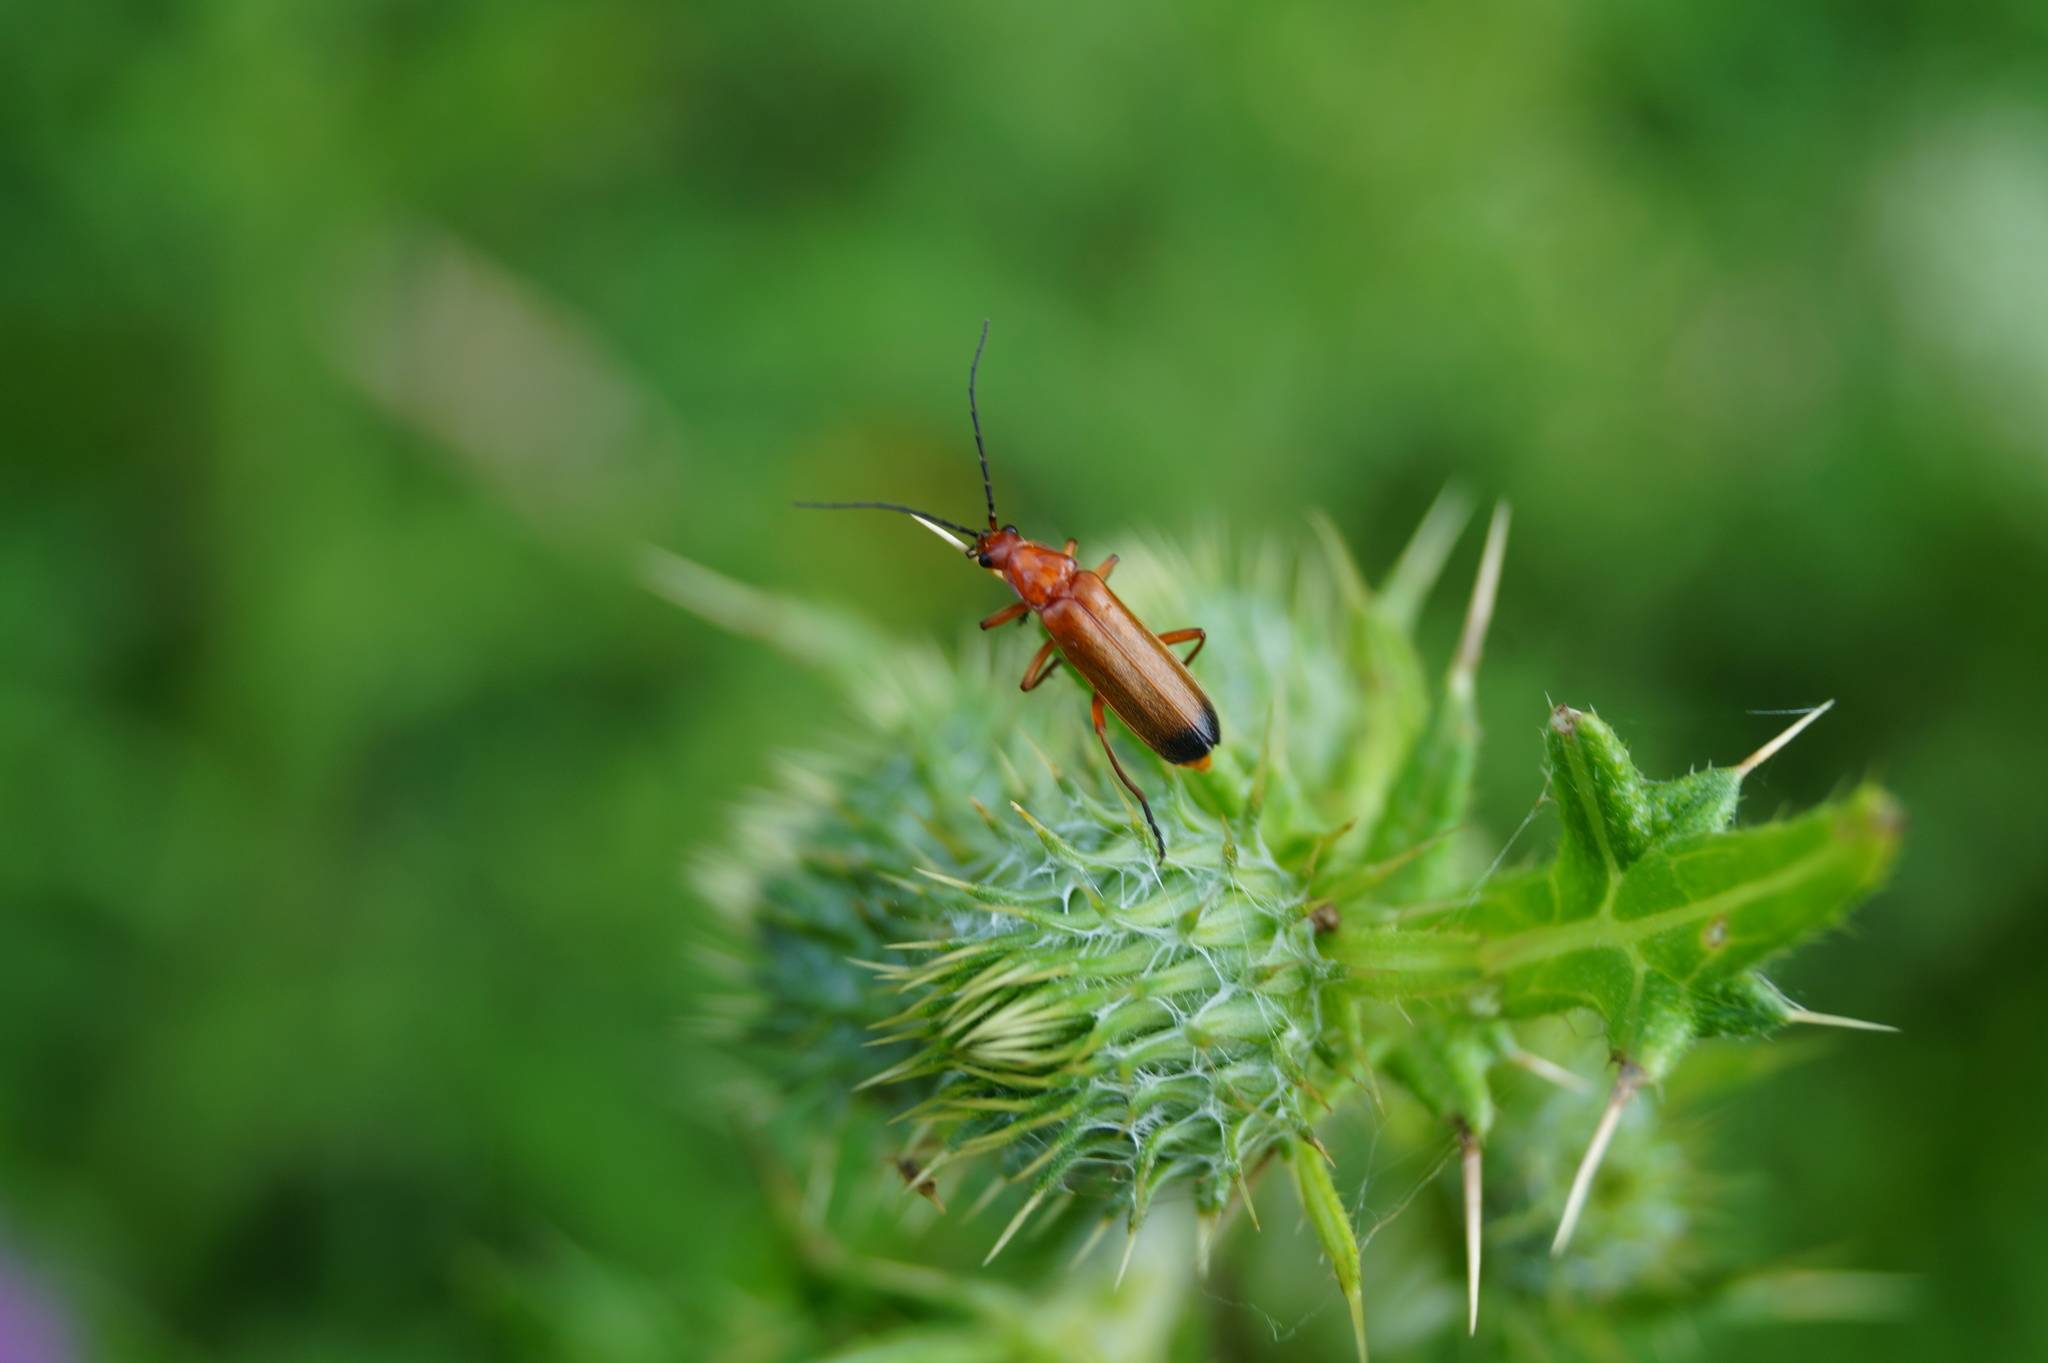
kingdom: Animalia
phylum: Arthropoda
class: Insecta
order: Coleoptera
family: Cantharidae
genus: Rhagonycha
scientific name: Rhagonycha fulva
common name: Common red soldier beetle
